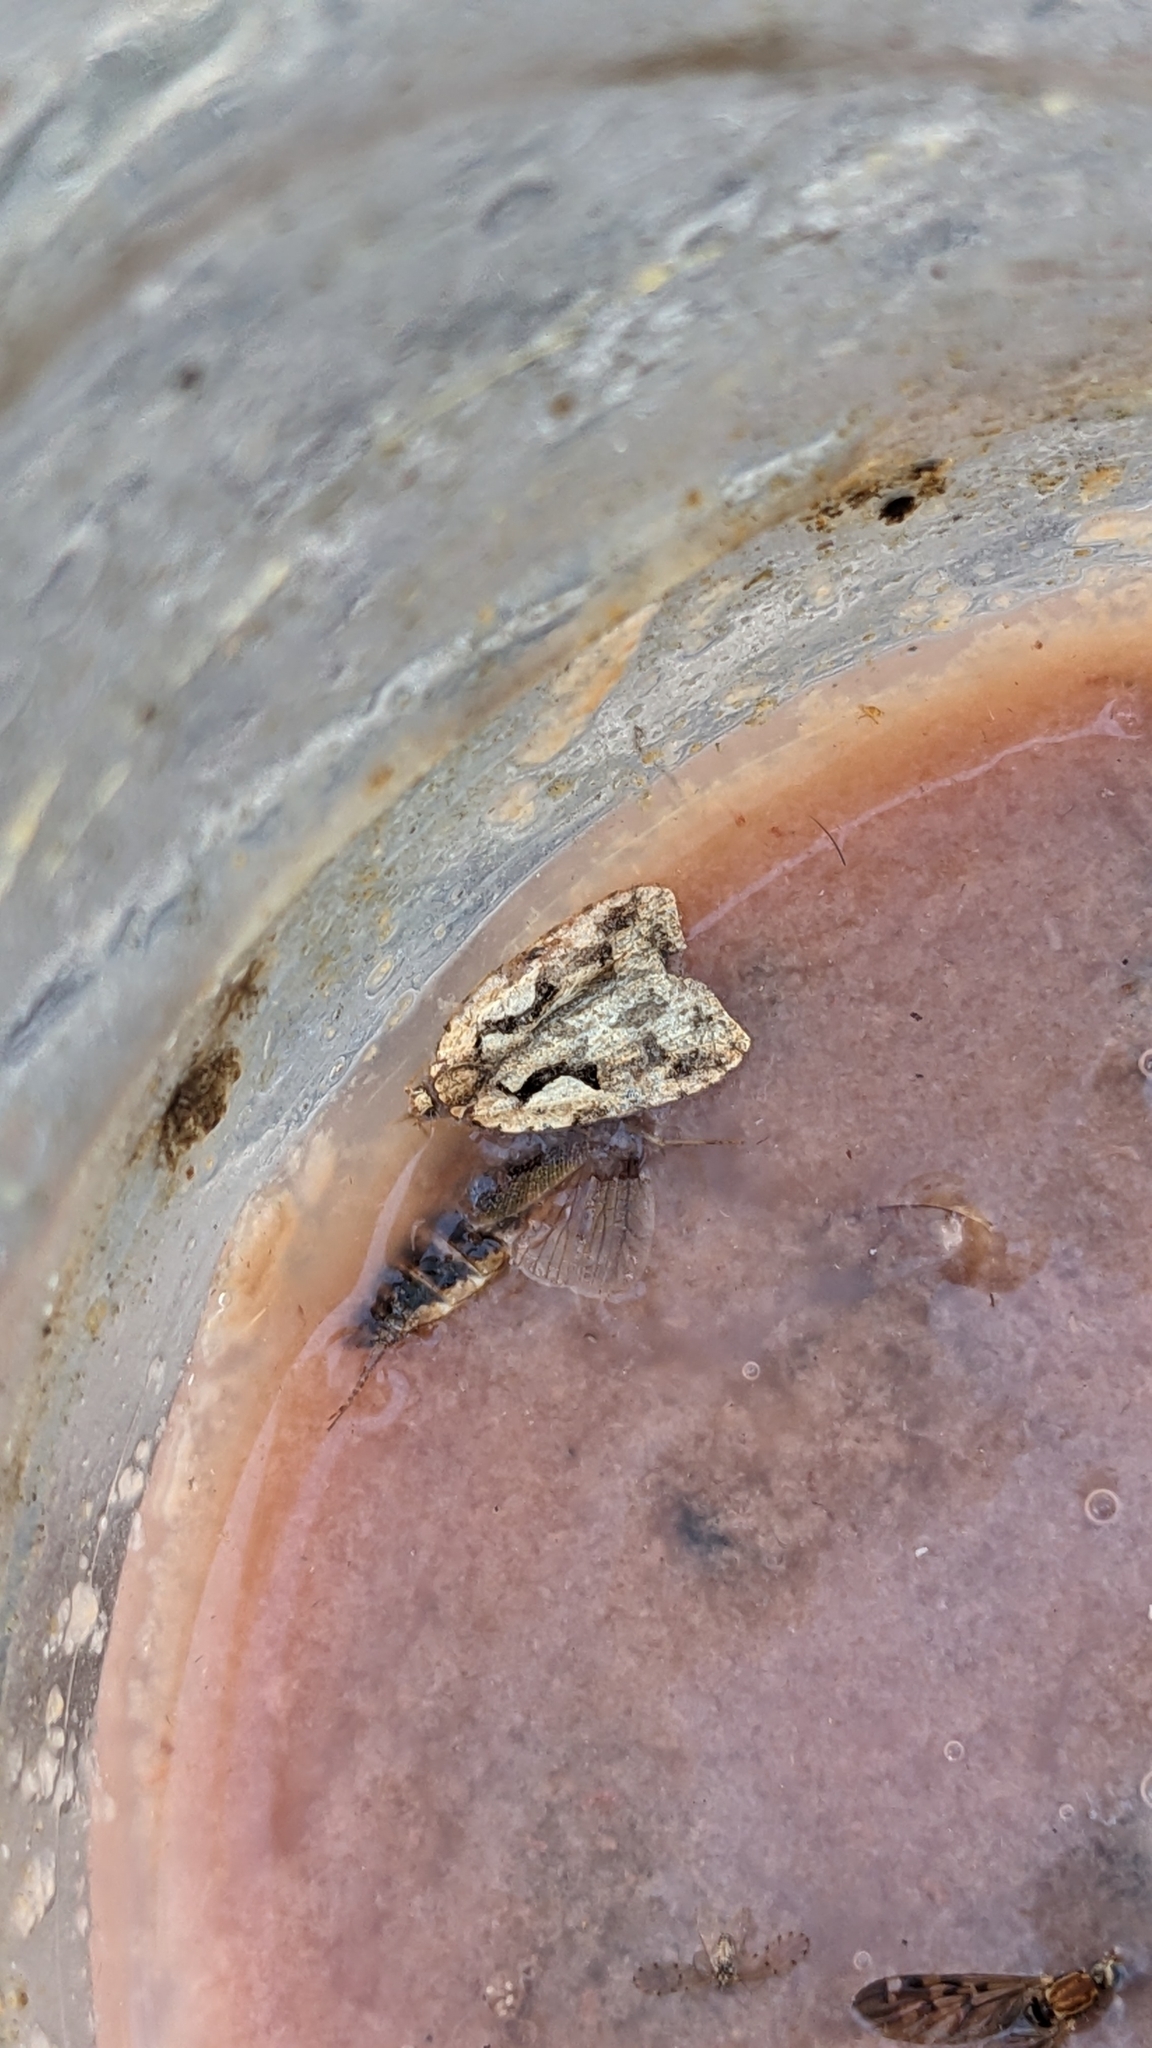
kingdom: Animalia
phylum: Arthropoda
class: Insecta
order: Lepidoptera
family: Tortricidae
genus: Cnephasia
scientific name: Cnephasia jactatana
